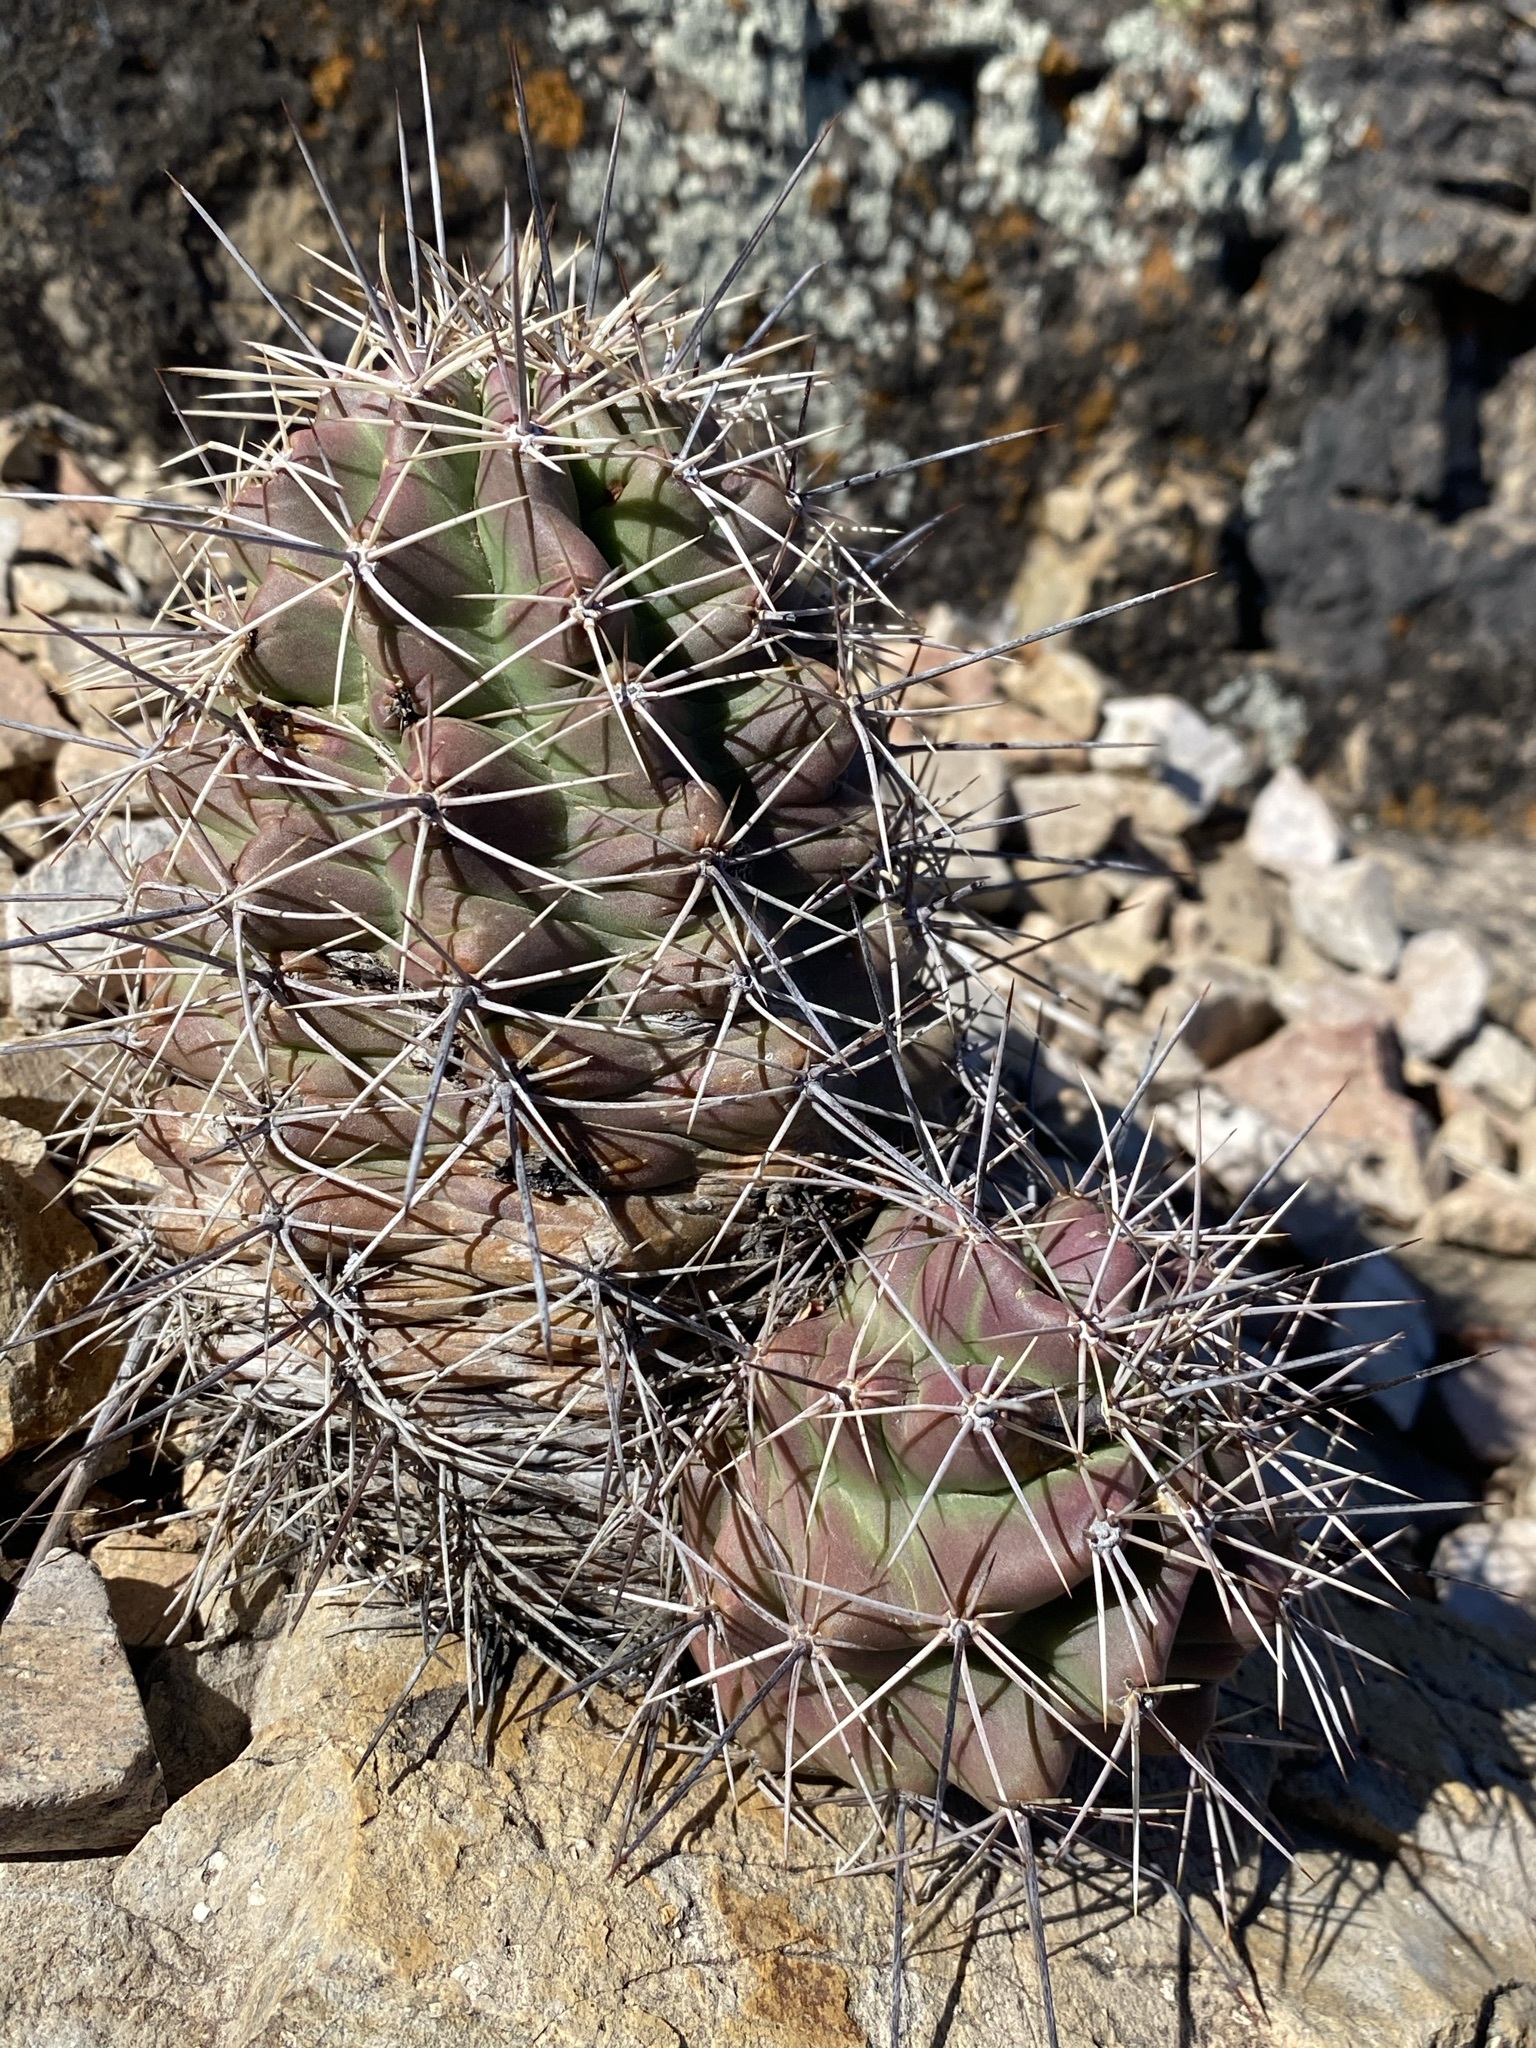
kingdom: Plantae
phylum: Tracheophyta
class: Magnoliopsida
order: Caryophyllales
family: Cactaceae
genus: Echinocereus
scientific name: Echinocereus coccineus
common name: Scarlet hedgehog cactus
